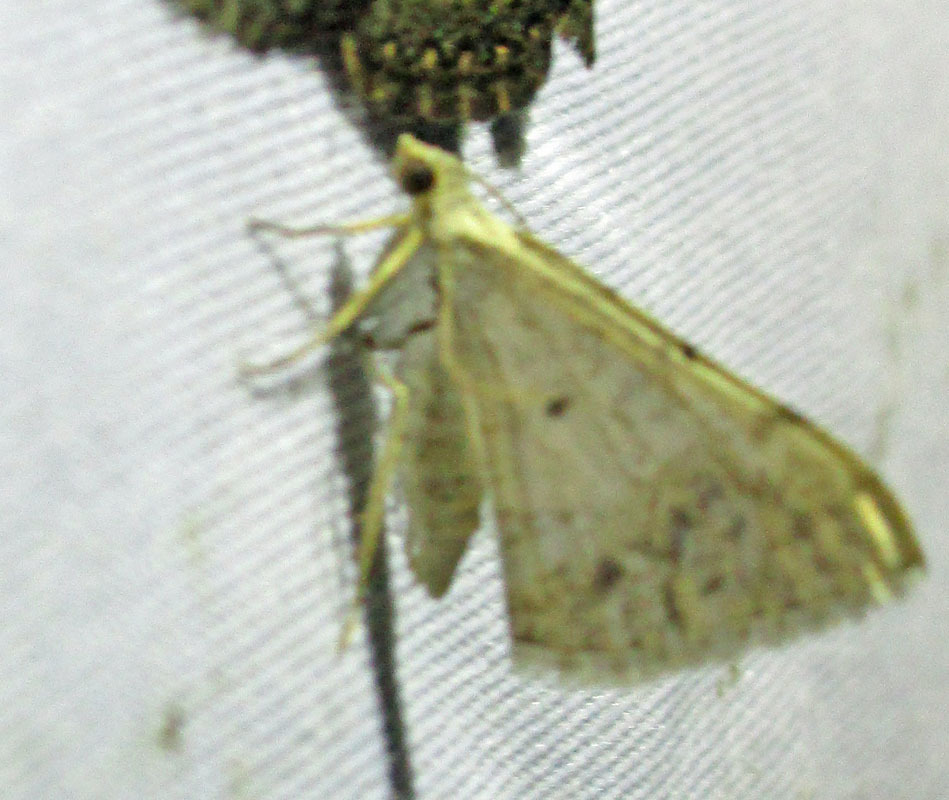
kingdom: Animalia
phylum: Arthropoda
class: Insecta
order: Lepidoptera
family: Pterophoridae
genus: Platyptilia
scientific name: Platyptilia
